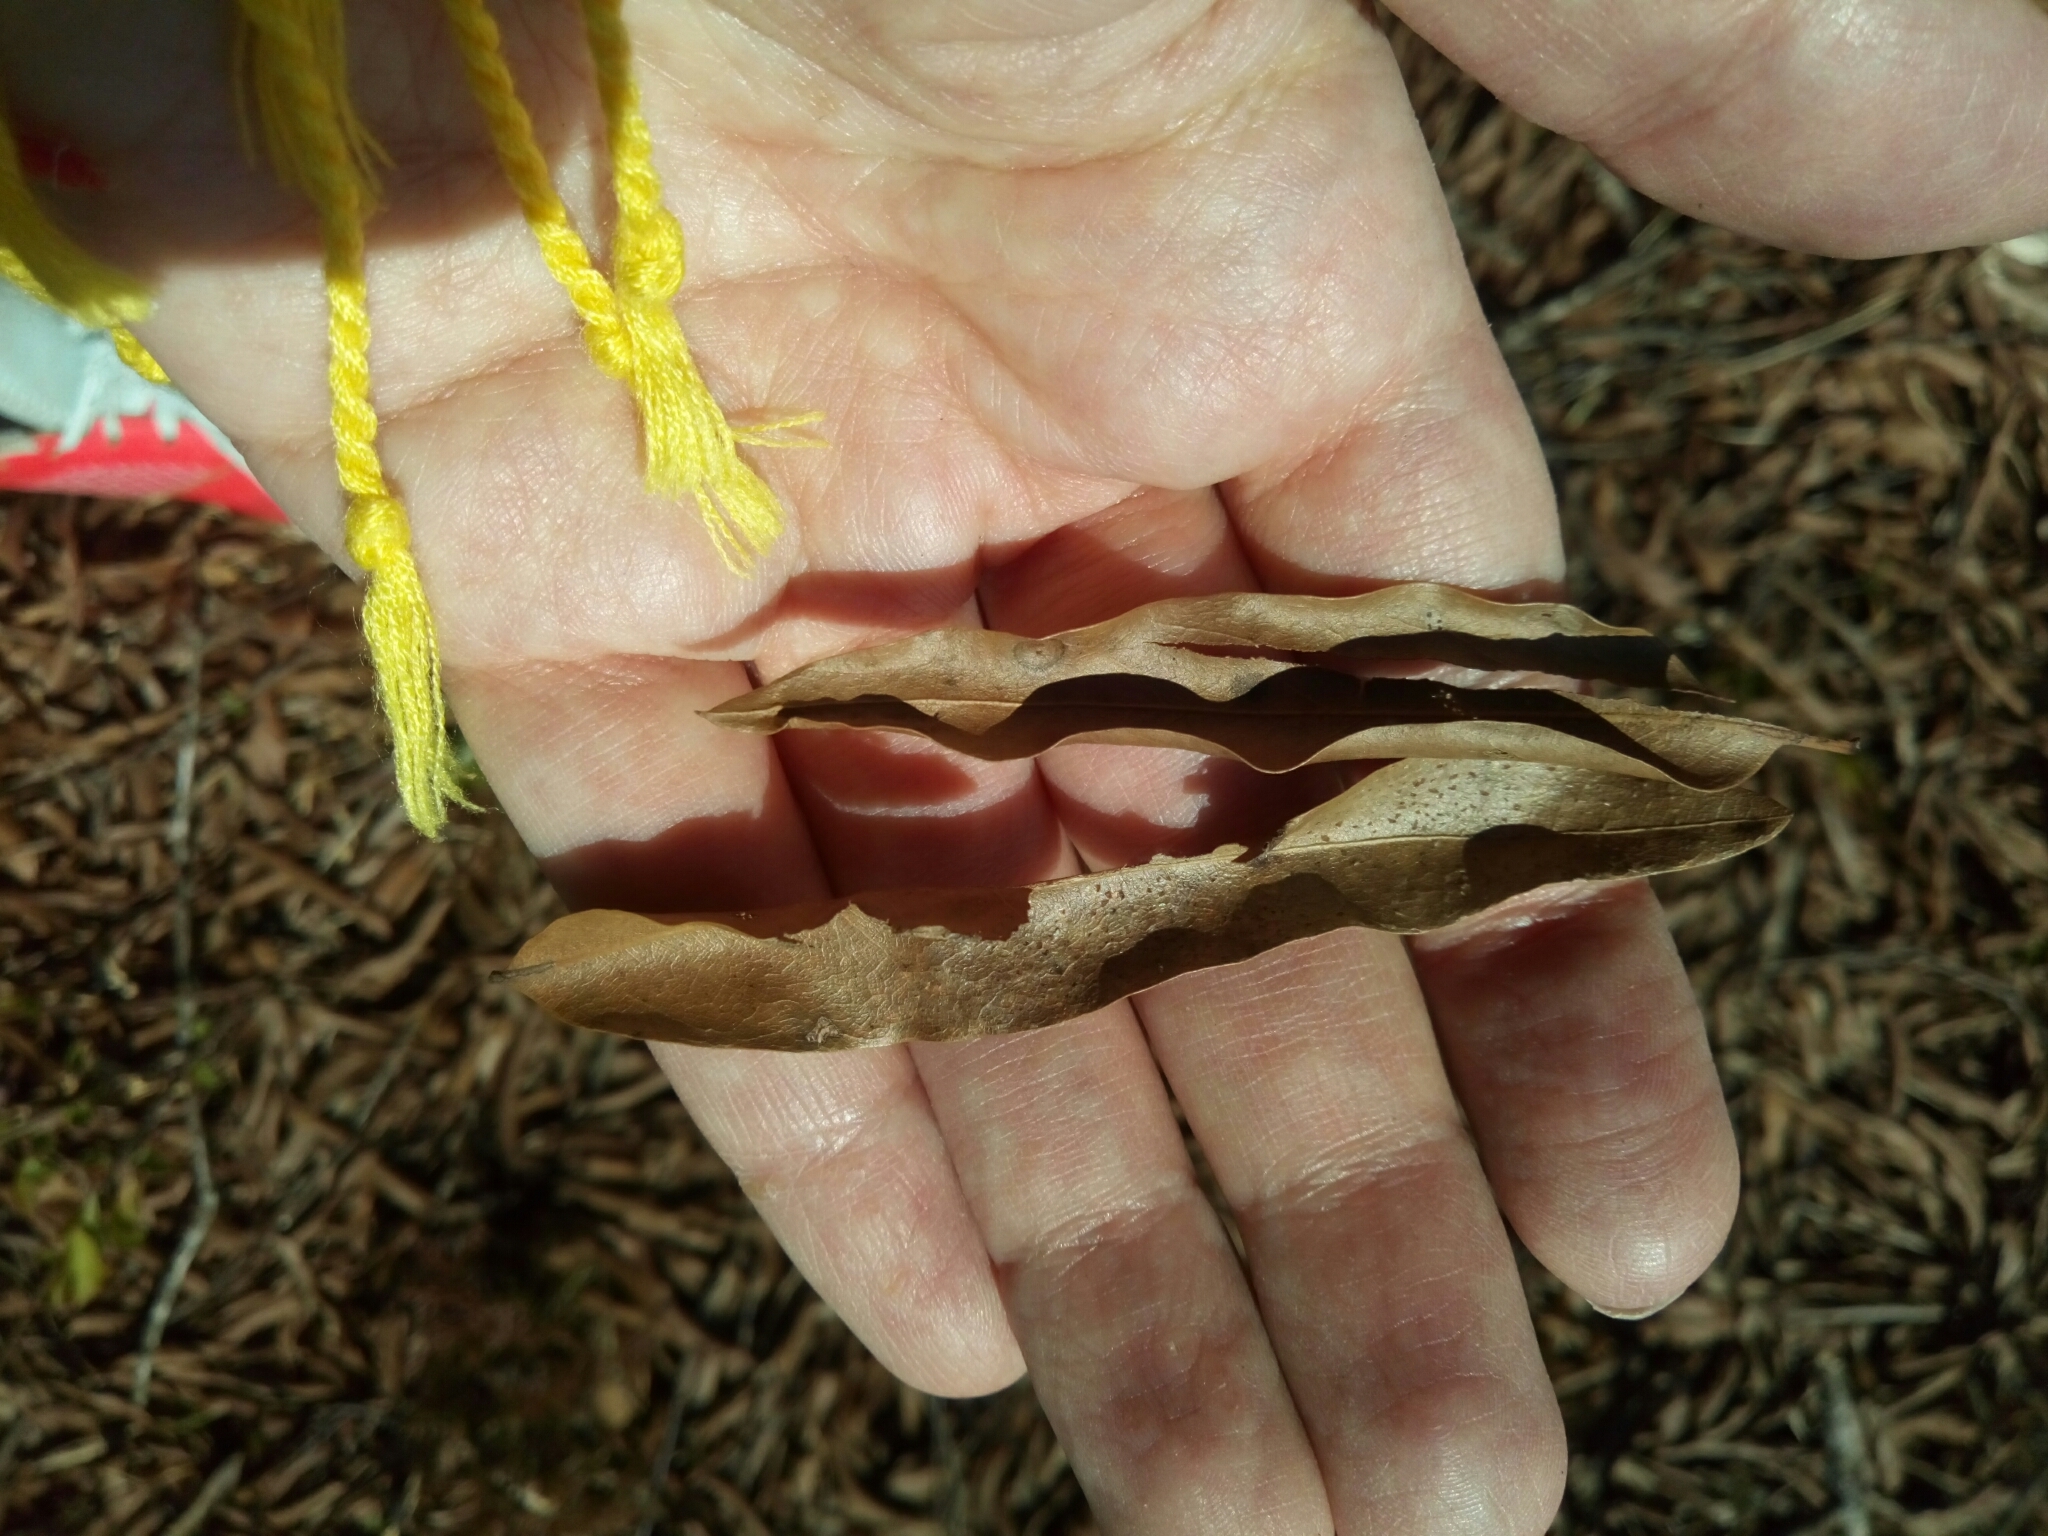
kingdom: Plantae
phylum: Tracheophyta
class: Magnoliopsida
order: Fagales
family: Fagaceae
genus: Quercus
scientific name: Quercus phellos
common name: Willow oak
